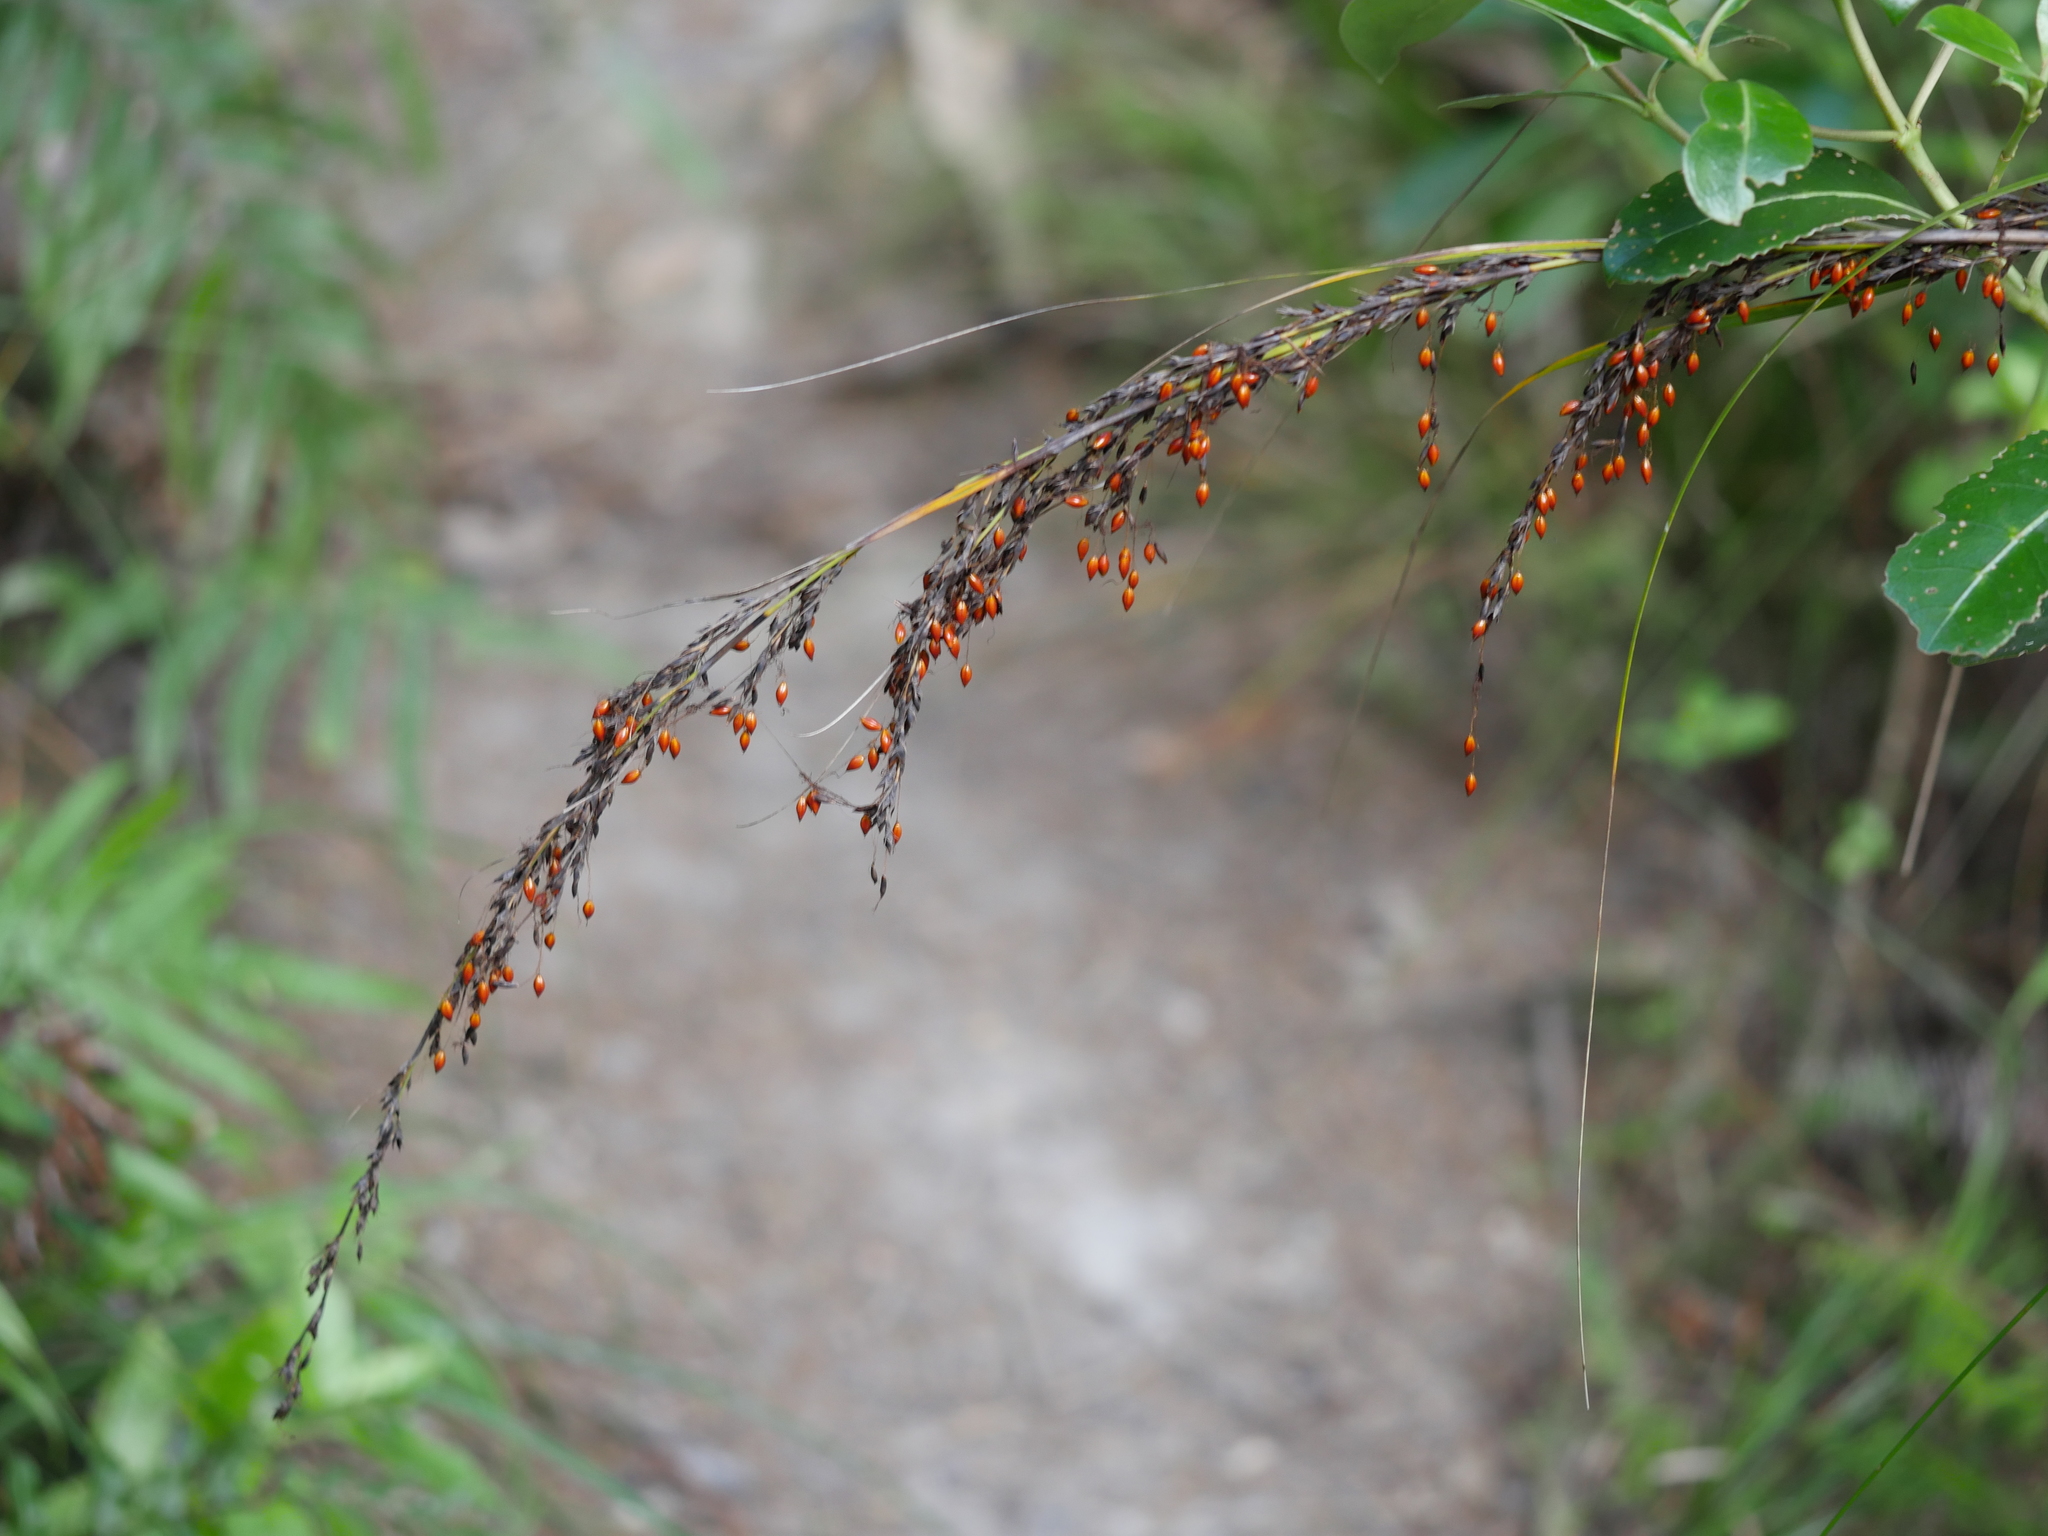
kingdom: Plantae
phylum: Tracheophyta
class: Liliopsida
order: Poales
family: Cyperaceae
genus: Gahnia
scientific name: Gahnia pauciflora
